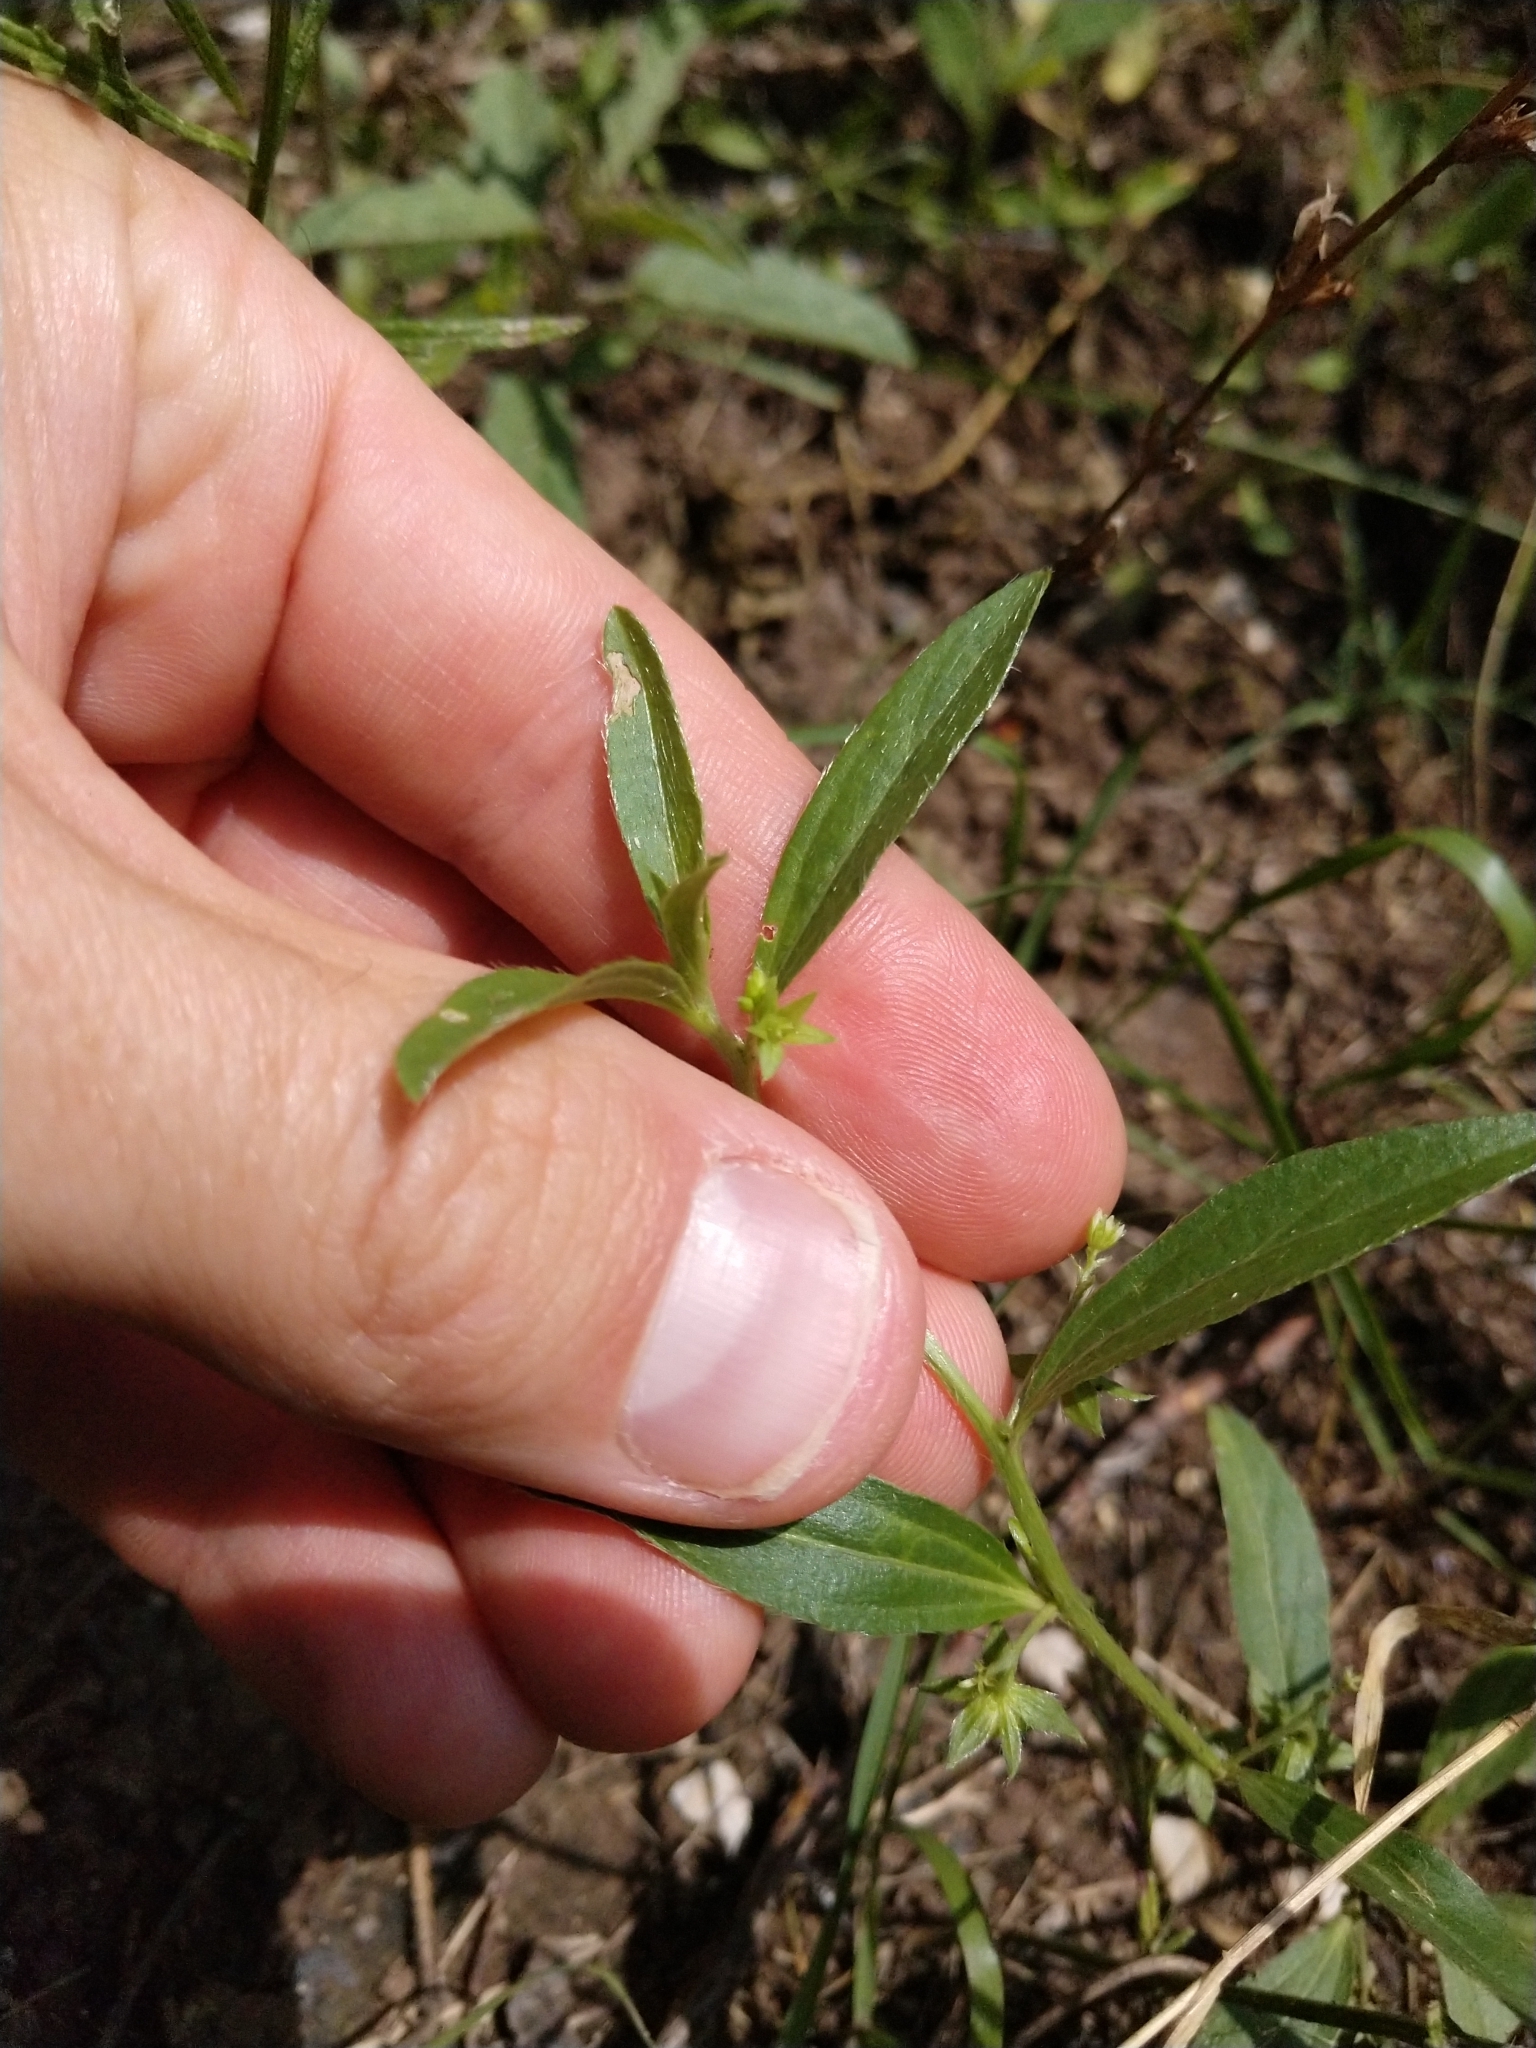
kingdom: Plantae
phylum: Tracheophyta
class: Magnoliopsida
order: Malpighiales
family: Euphorbiaceae
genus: Ditaxis
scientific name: Ditaxis humilis
